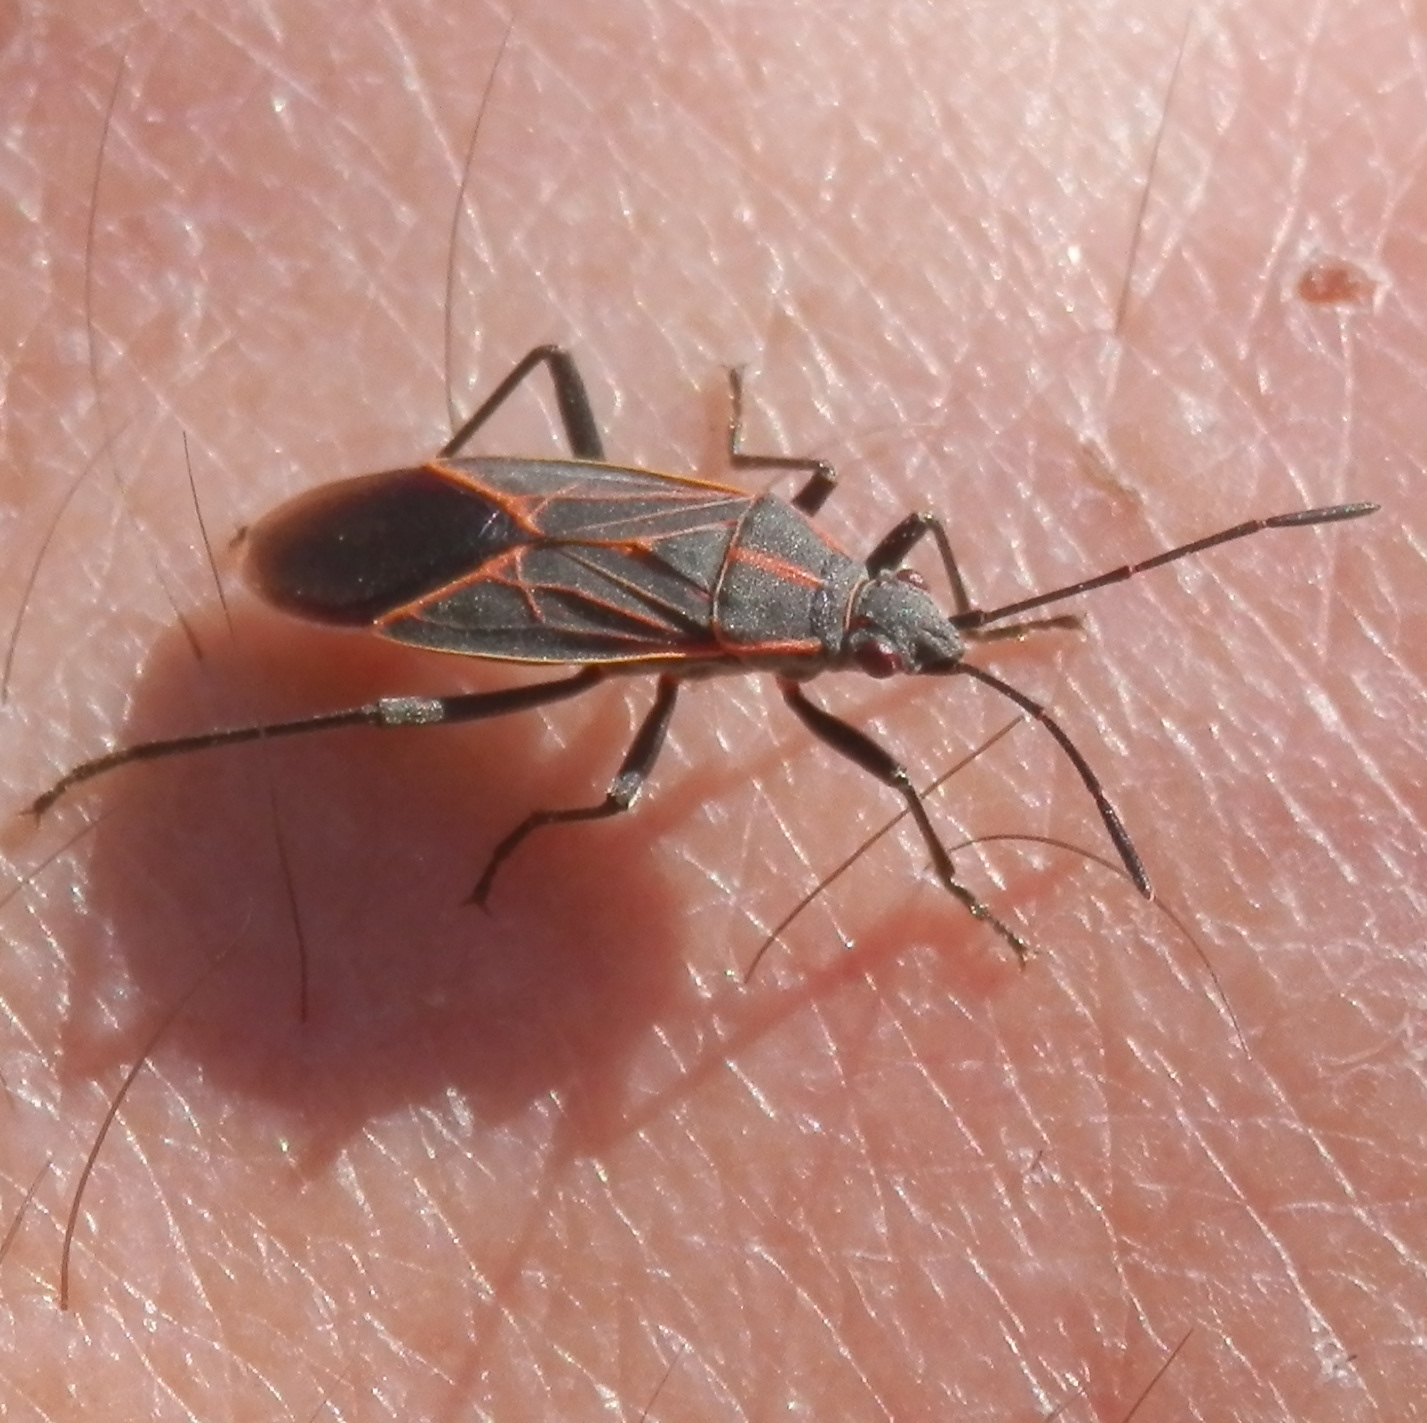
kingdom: Animalia
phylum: Arthropoda
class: Insecta
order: Hemiptera
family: Rhopalidae
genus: Boisea
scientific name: Boisea rubrolineata
